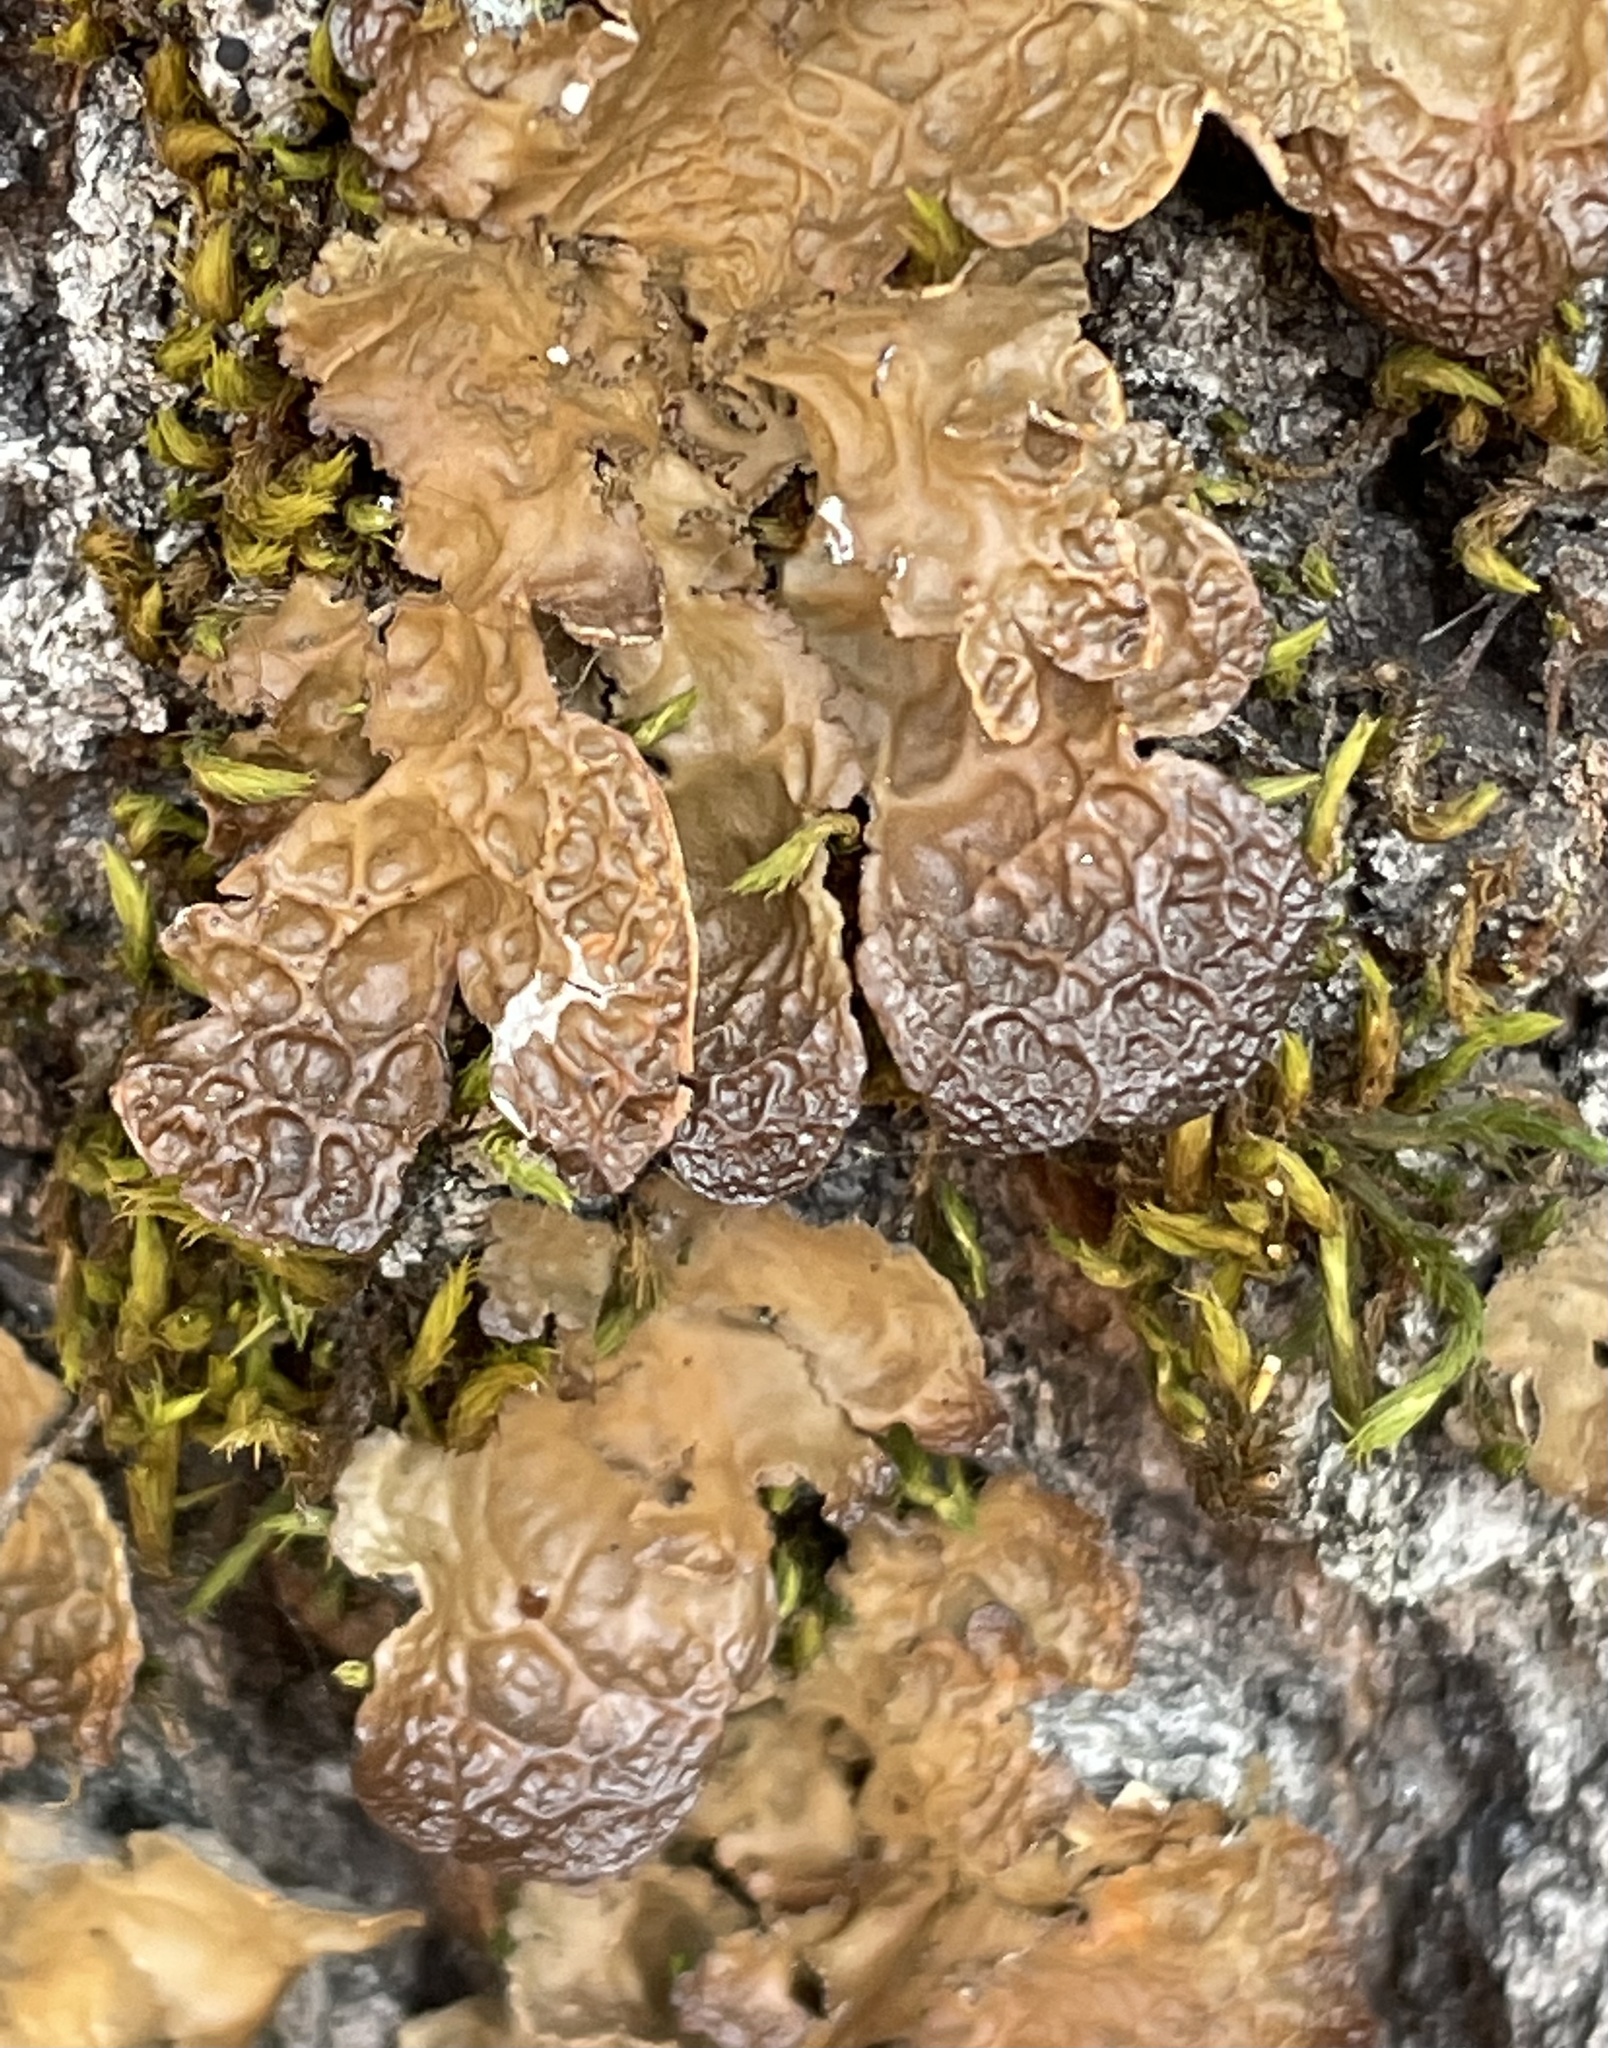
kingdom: Fungi
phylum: Ascomycota
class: Lecanoromycetes
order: Peltigerales
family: Lobariaceae
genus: Lobaria
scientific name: Lobaria anthraspis
